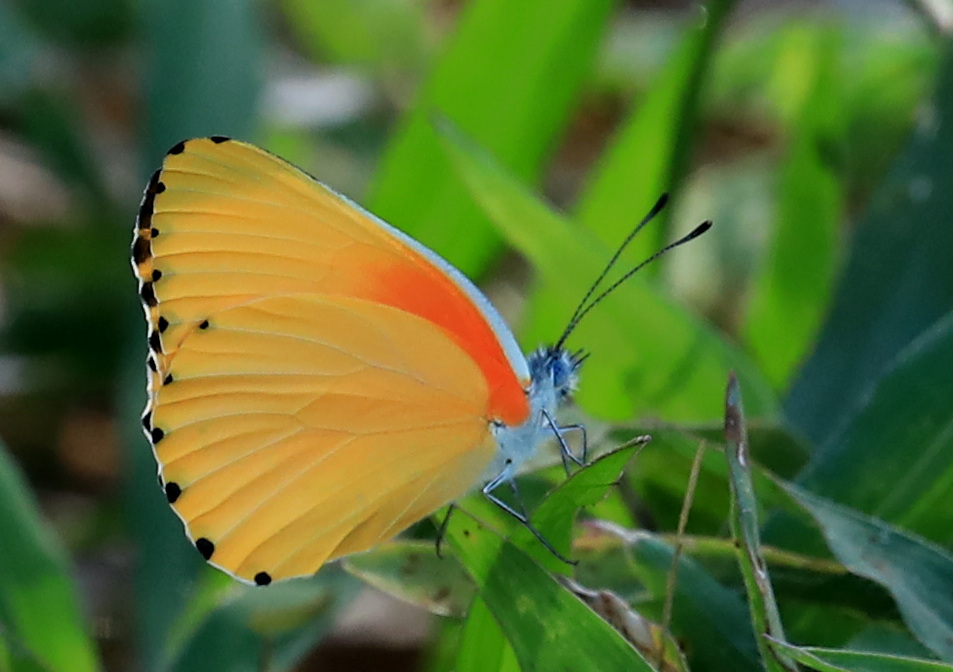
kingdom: Animalia
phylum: Arthropoda
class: Insecta
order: Lepidoptera
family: Pieridae
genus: Mylothris
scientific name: Mylothris agathina
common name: Eastern dotted border
